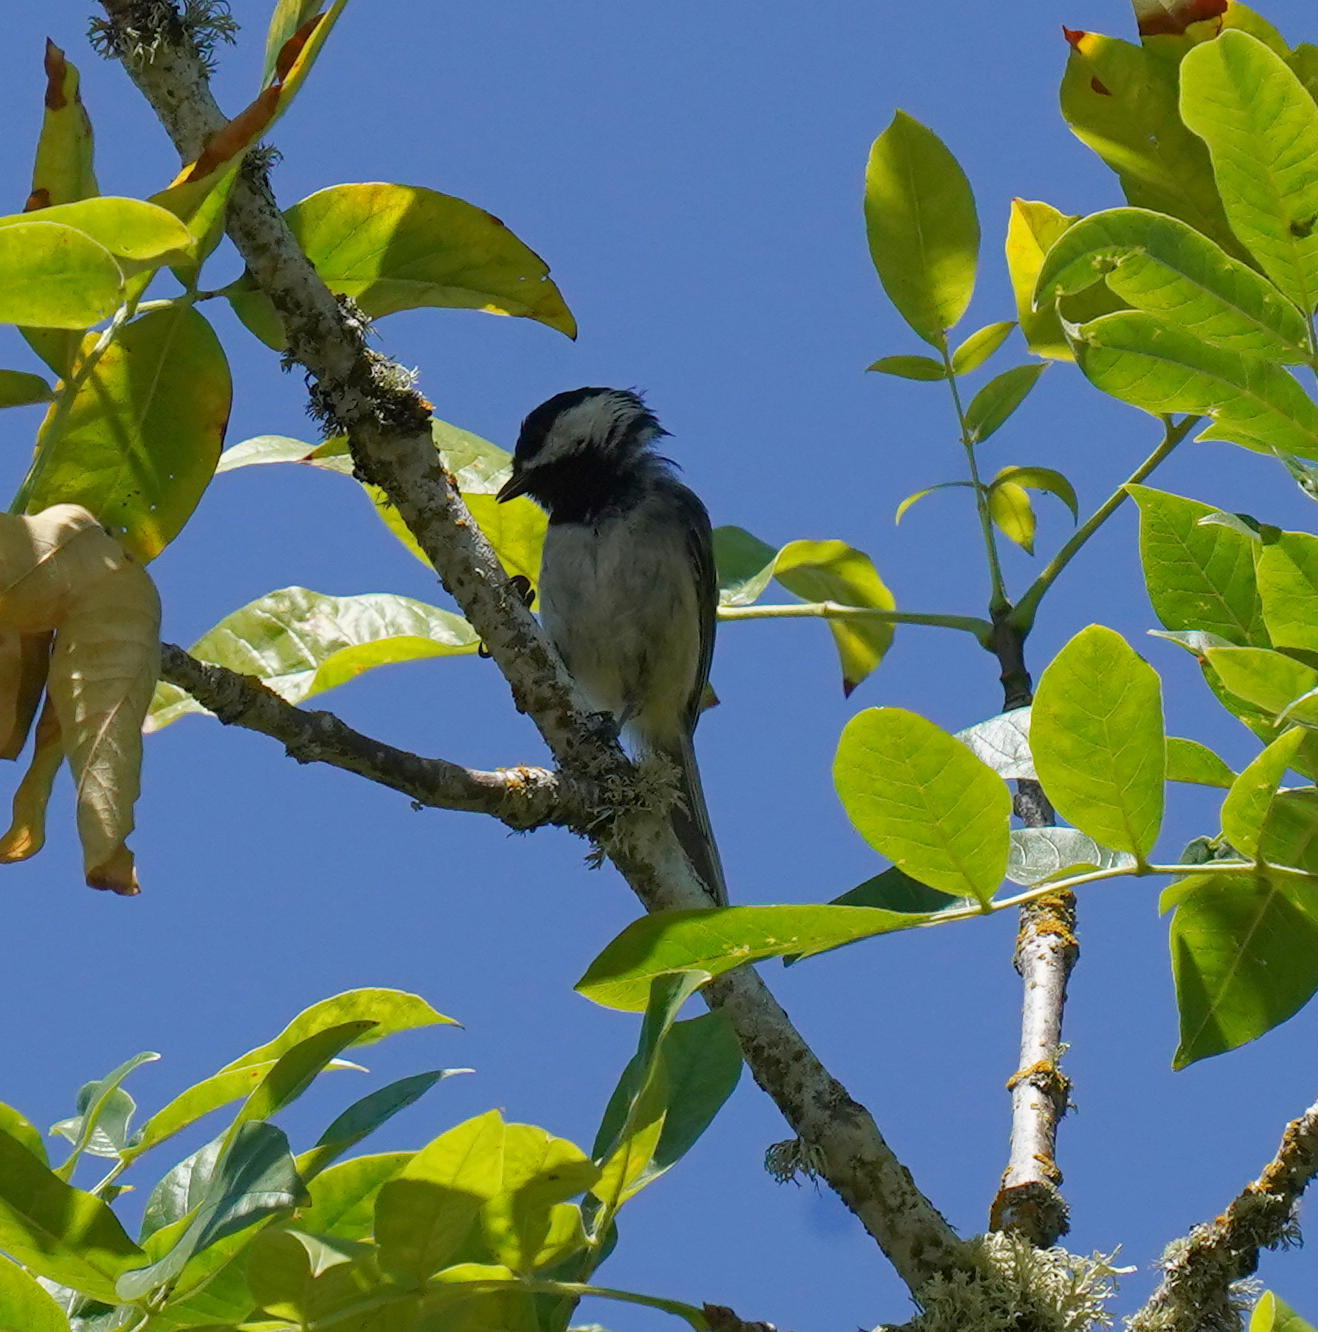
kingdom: Animalia
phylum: Chordata
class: Aves
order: Passeriformes
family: Paridae
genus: Poecile
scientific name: Poecile atricapillus
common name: Black-capped chickadee
